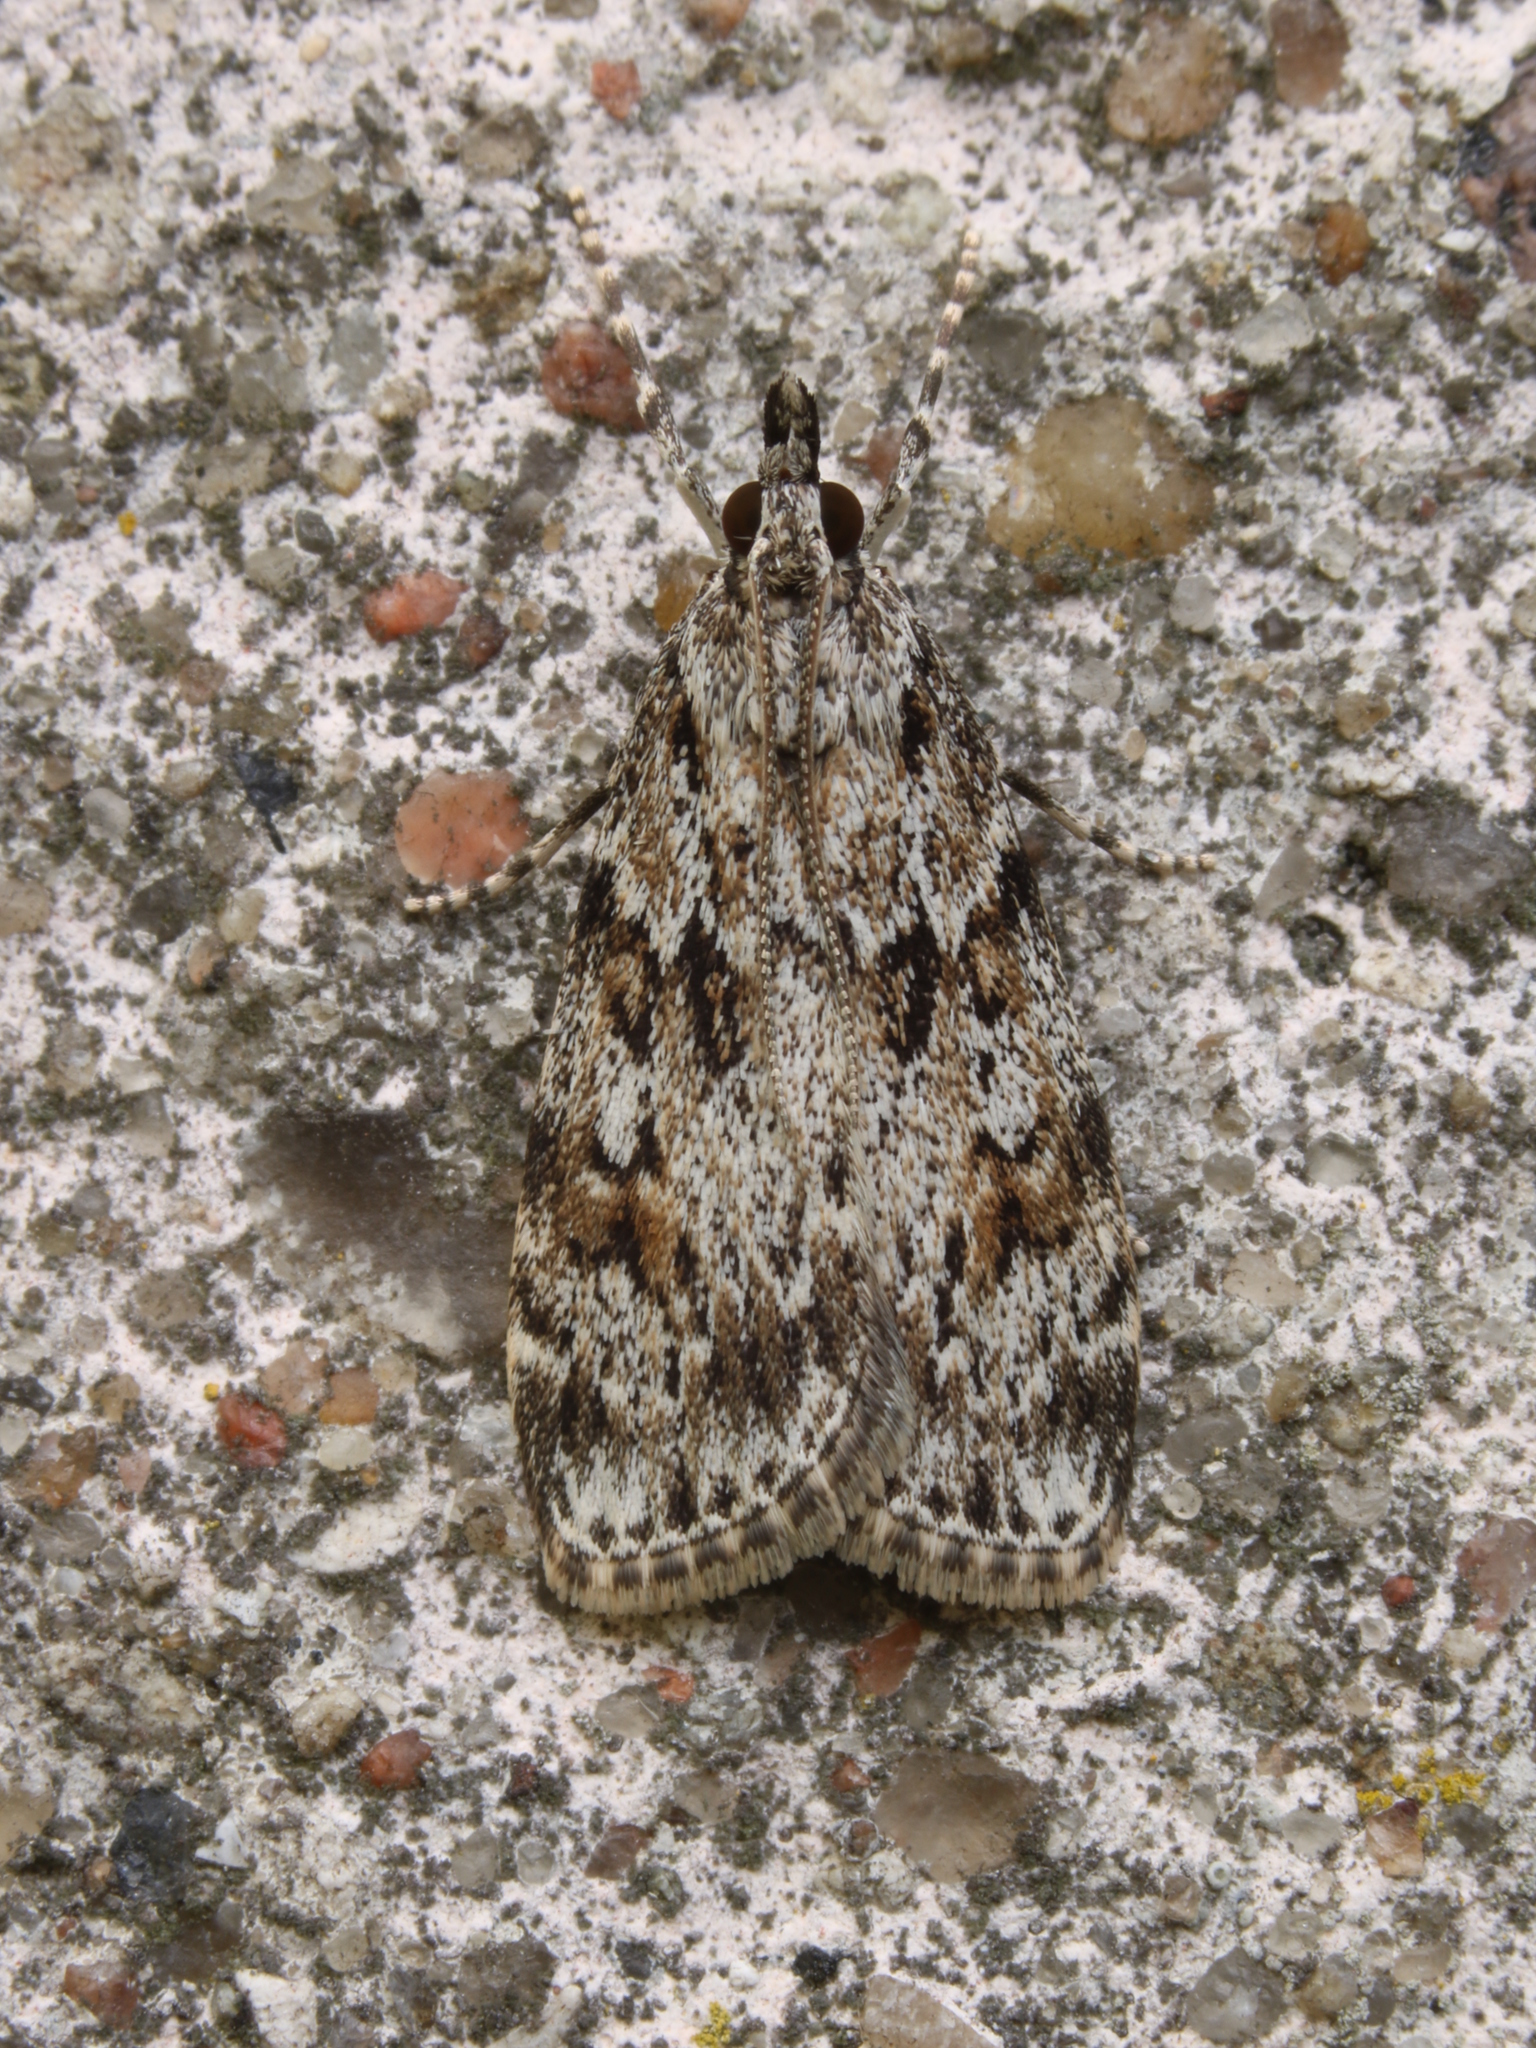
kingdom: Animalia
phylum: Arthropoda
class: Insecta
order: Lepidoptera
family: Crambidae
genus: Scoparia
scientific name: Scoparia basistrigalis
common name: Base-lined grey
